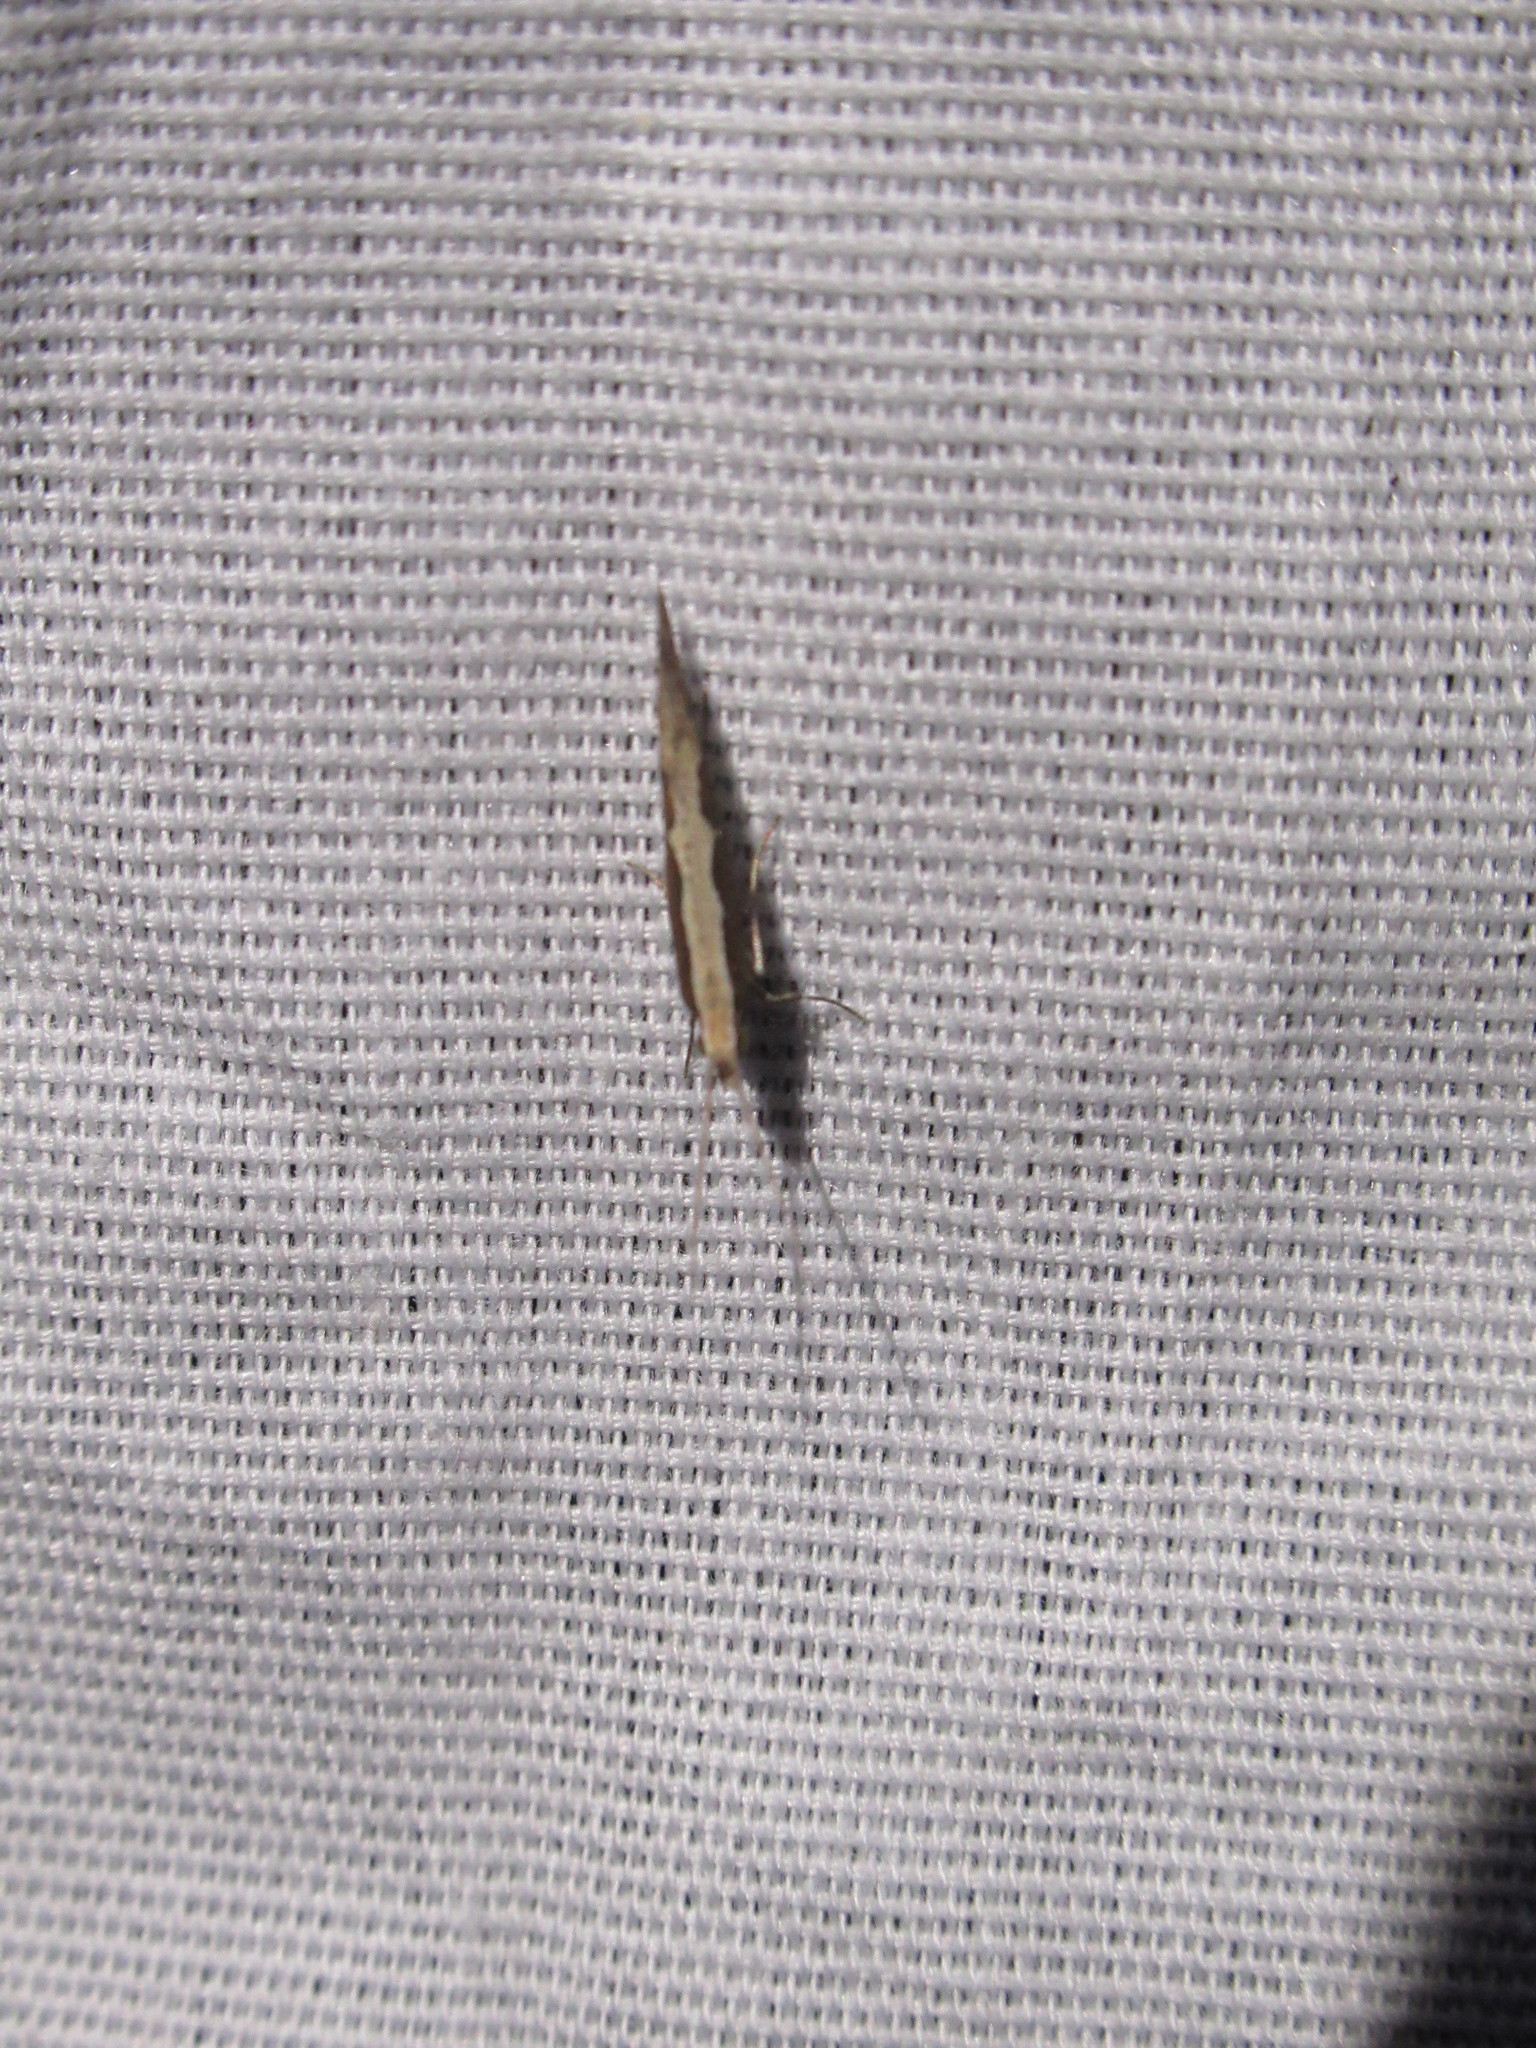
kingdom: Animalia
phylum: Arthropoda
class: Insecta
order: Lepidoptera
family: Plutellidae
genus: Plutella
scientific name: Plutella xylostella
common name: Diamond-back moth
